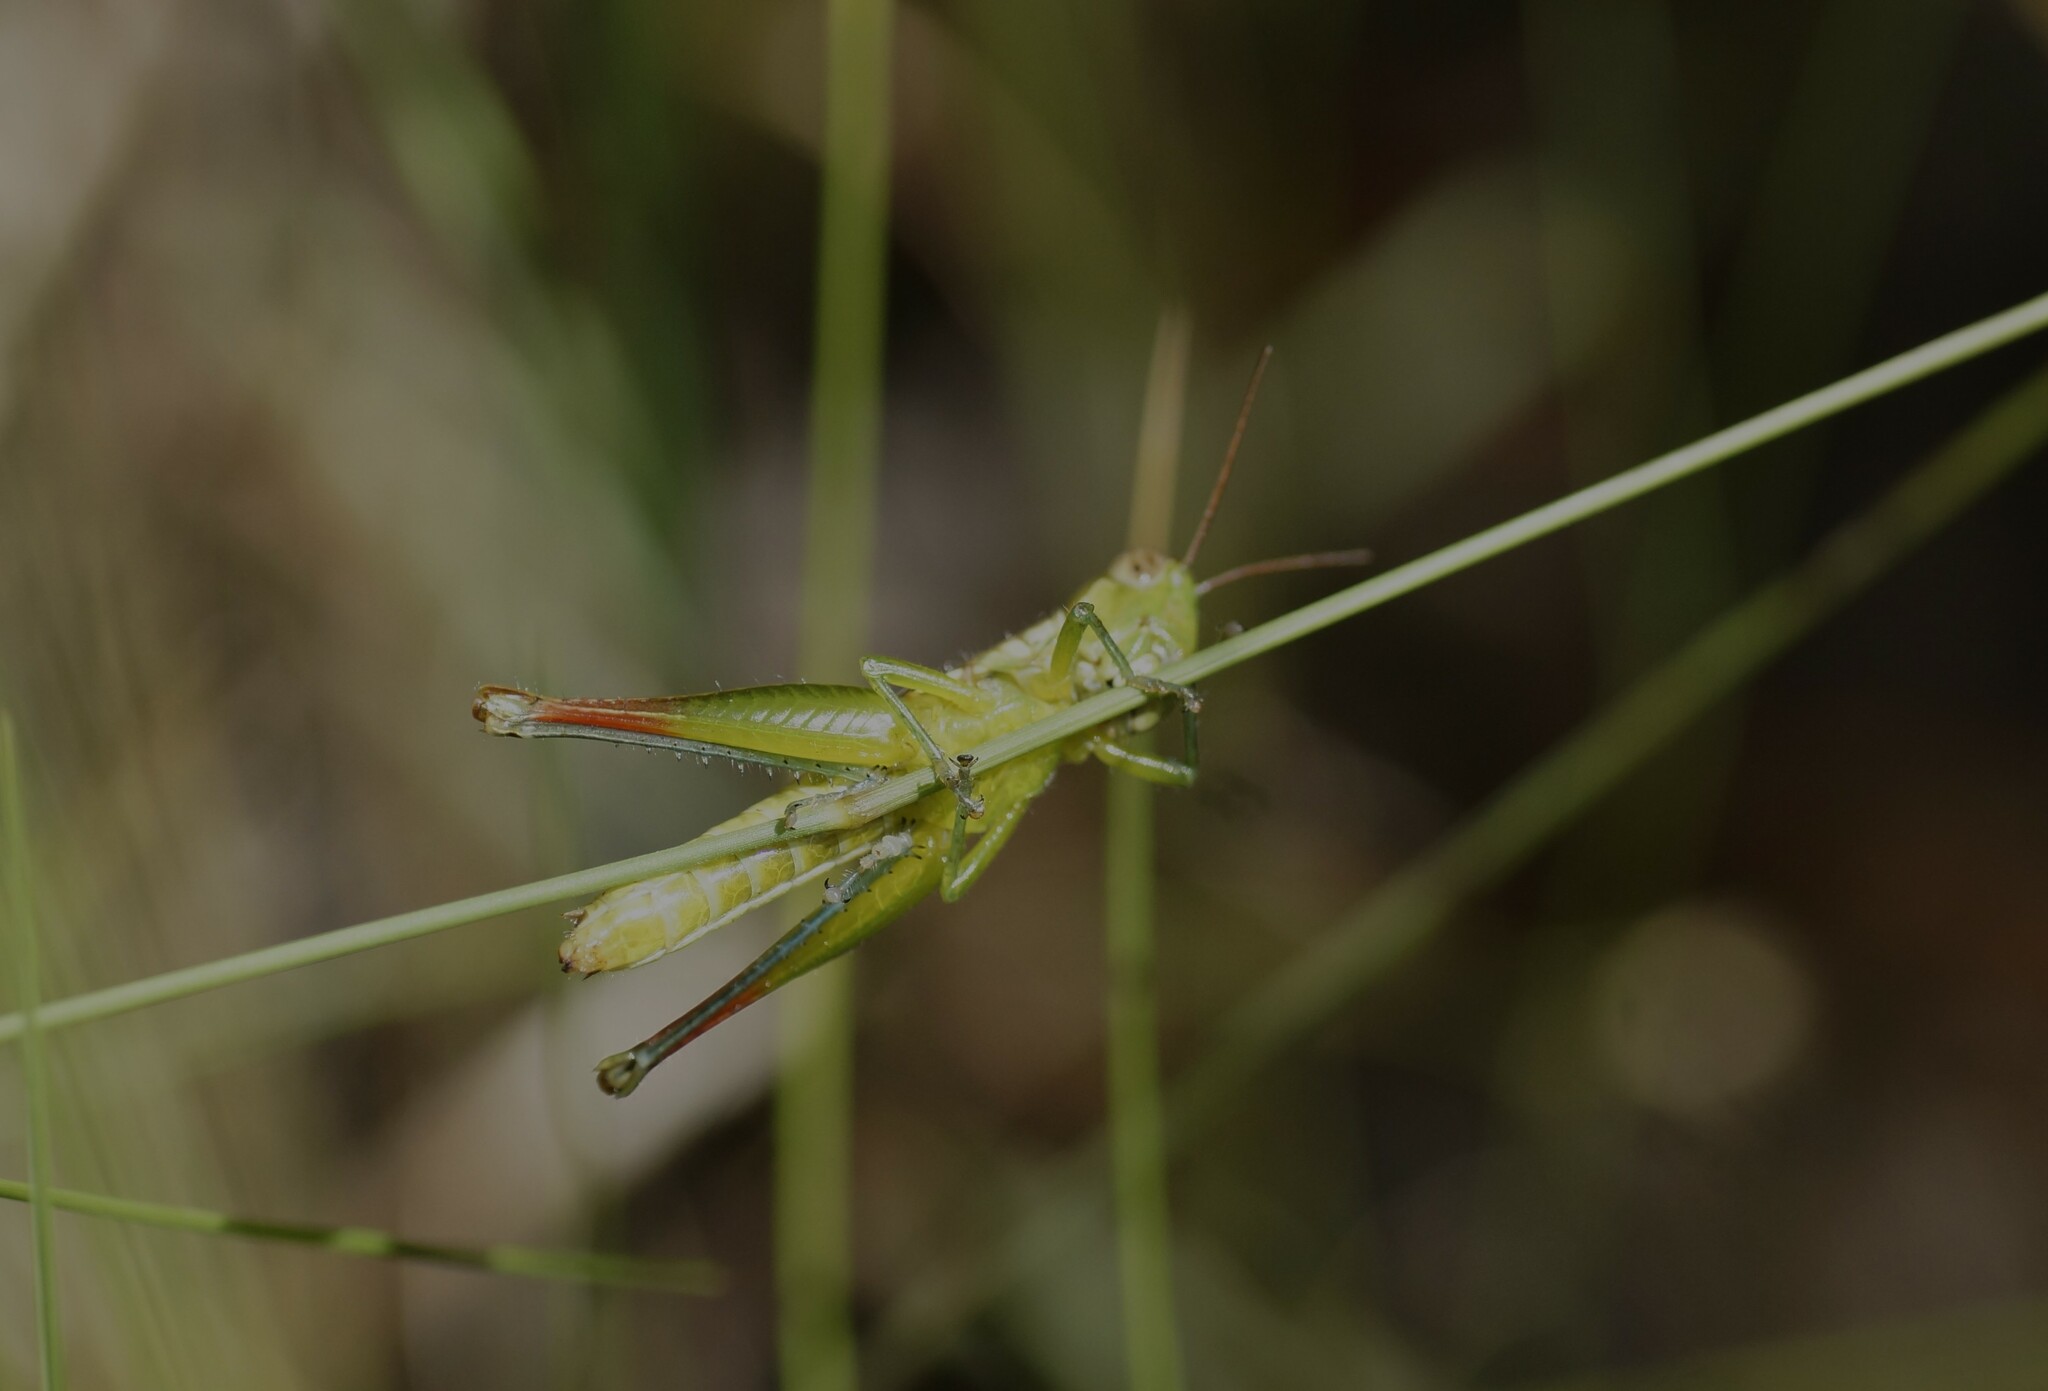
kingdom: Animalia
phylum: Arthropoda
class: Insecta
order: Orthoptera
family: Acrididae
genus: Methiola
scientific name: Methiola picta
